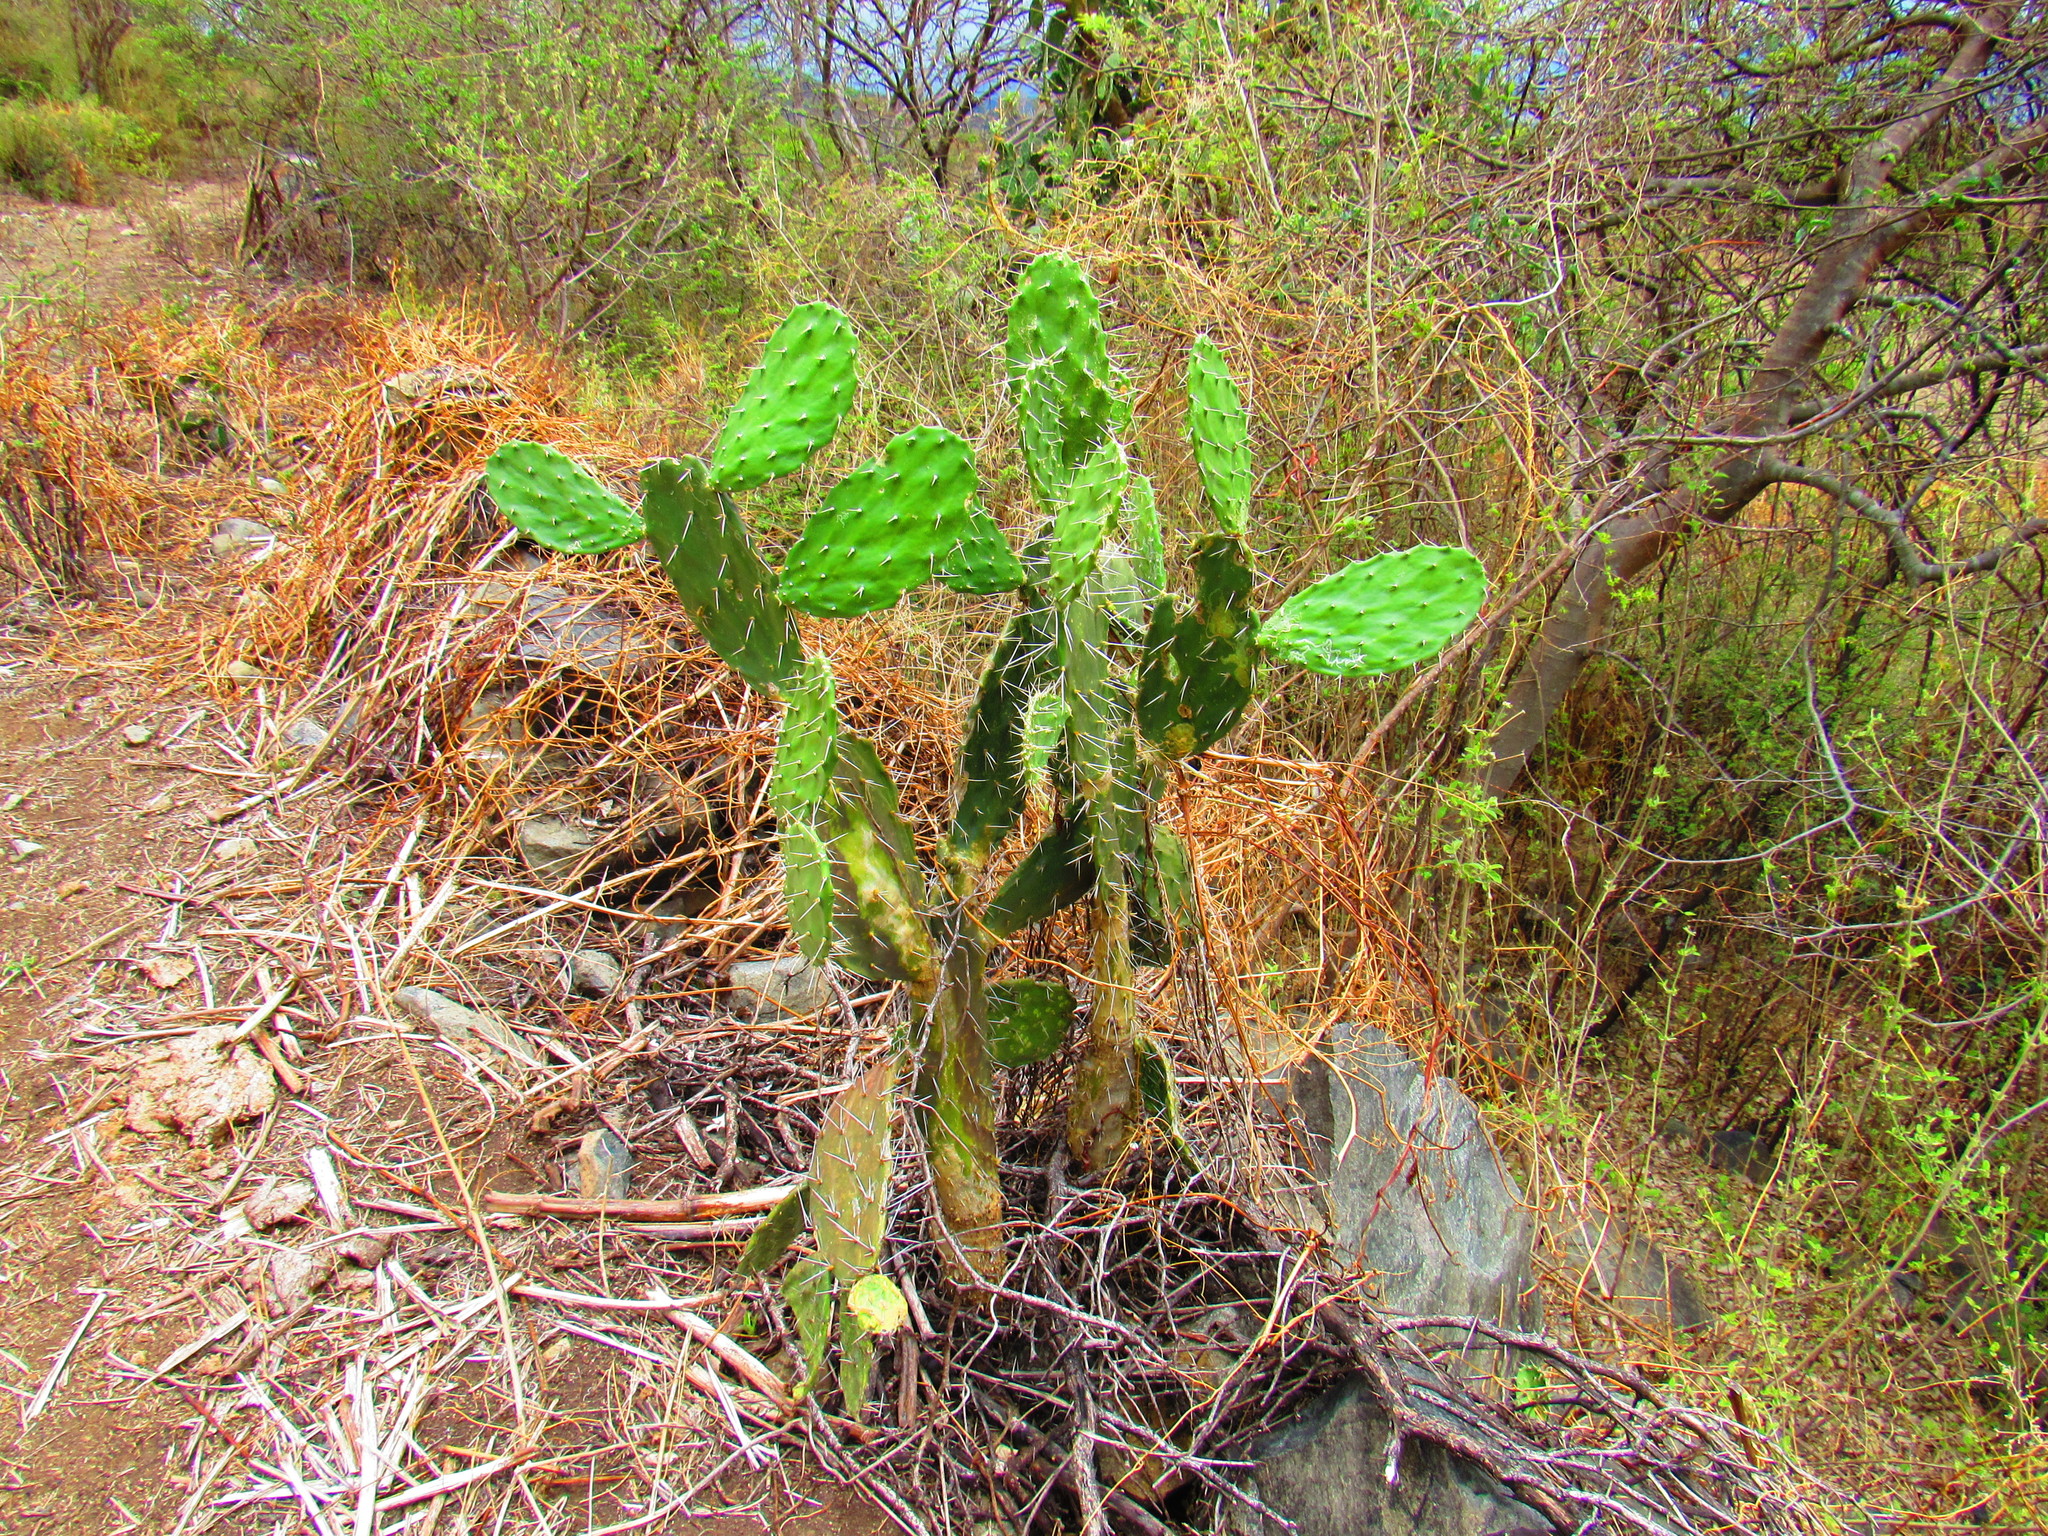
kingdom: Plantae
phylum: Tracheophyta
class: Magnoliopsida
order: Caryophyllales
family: Cactaceae
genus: Opuntia
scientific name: Opuntia lasiacantha
